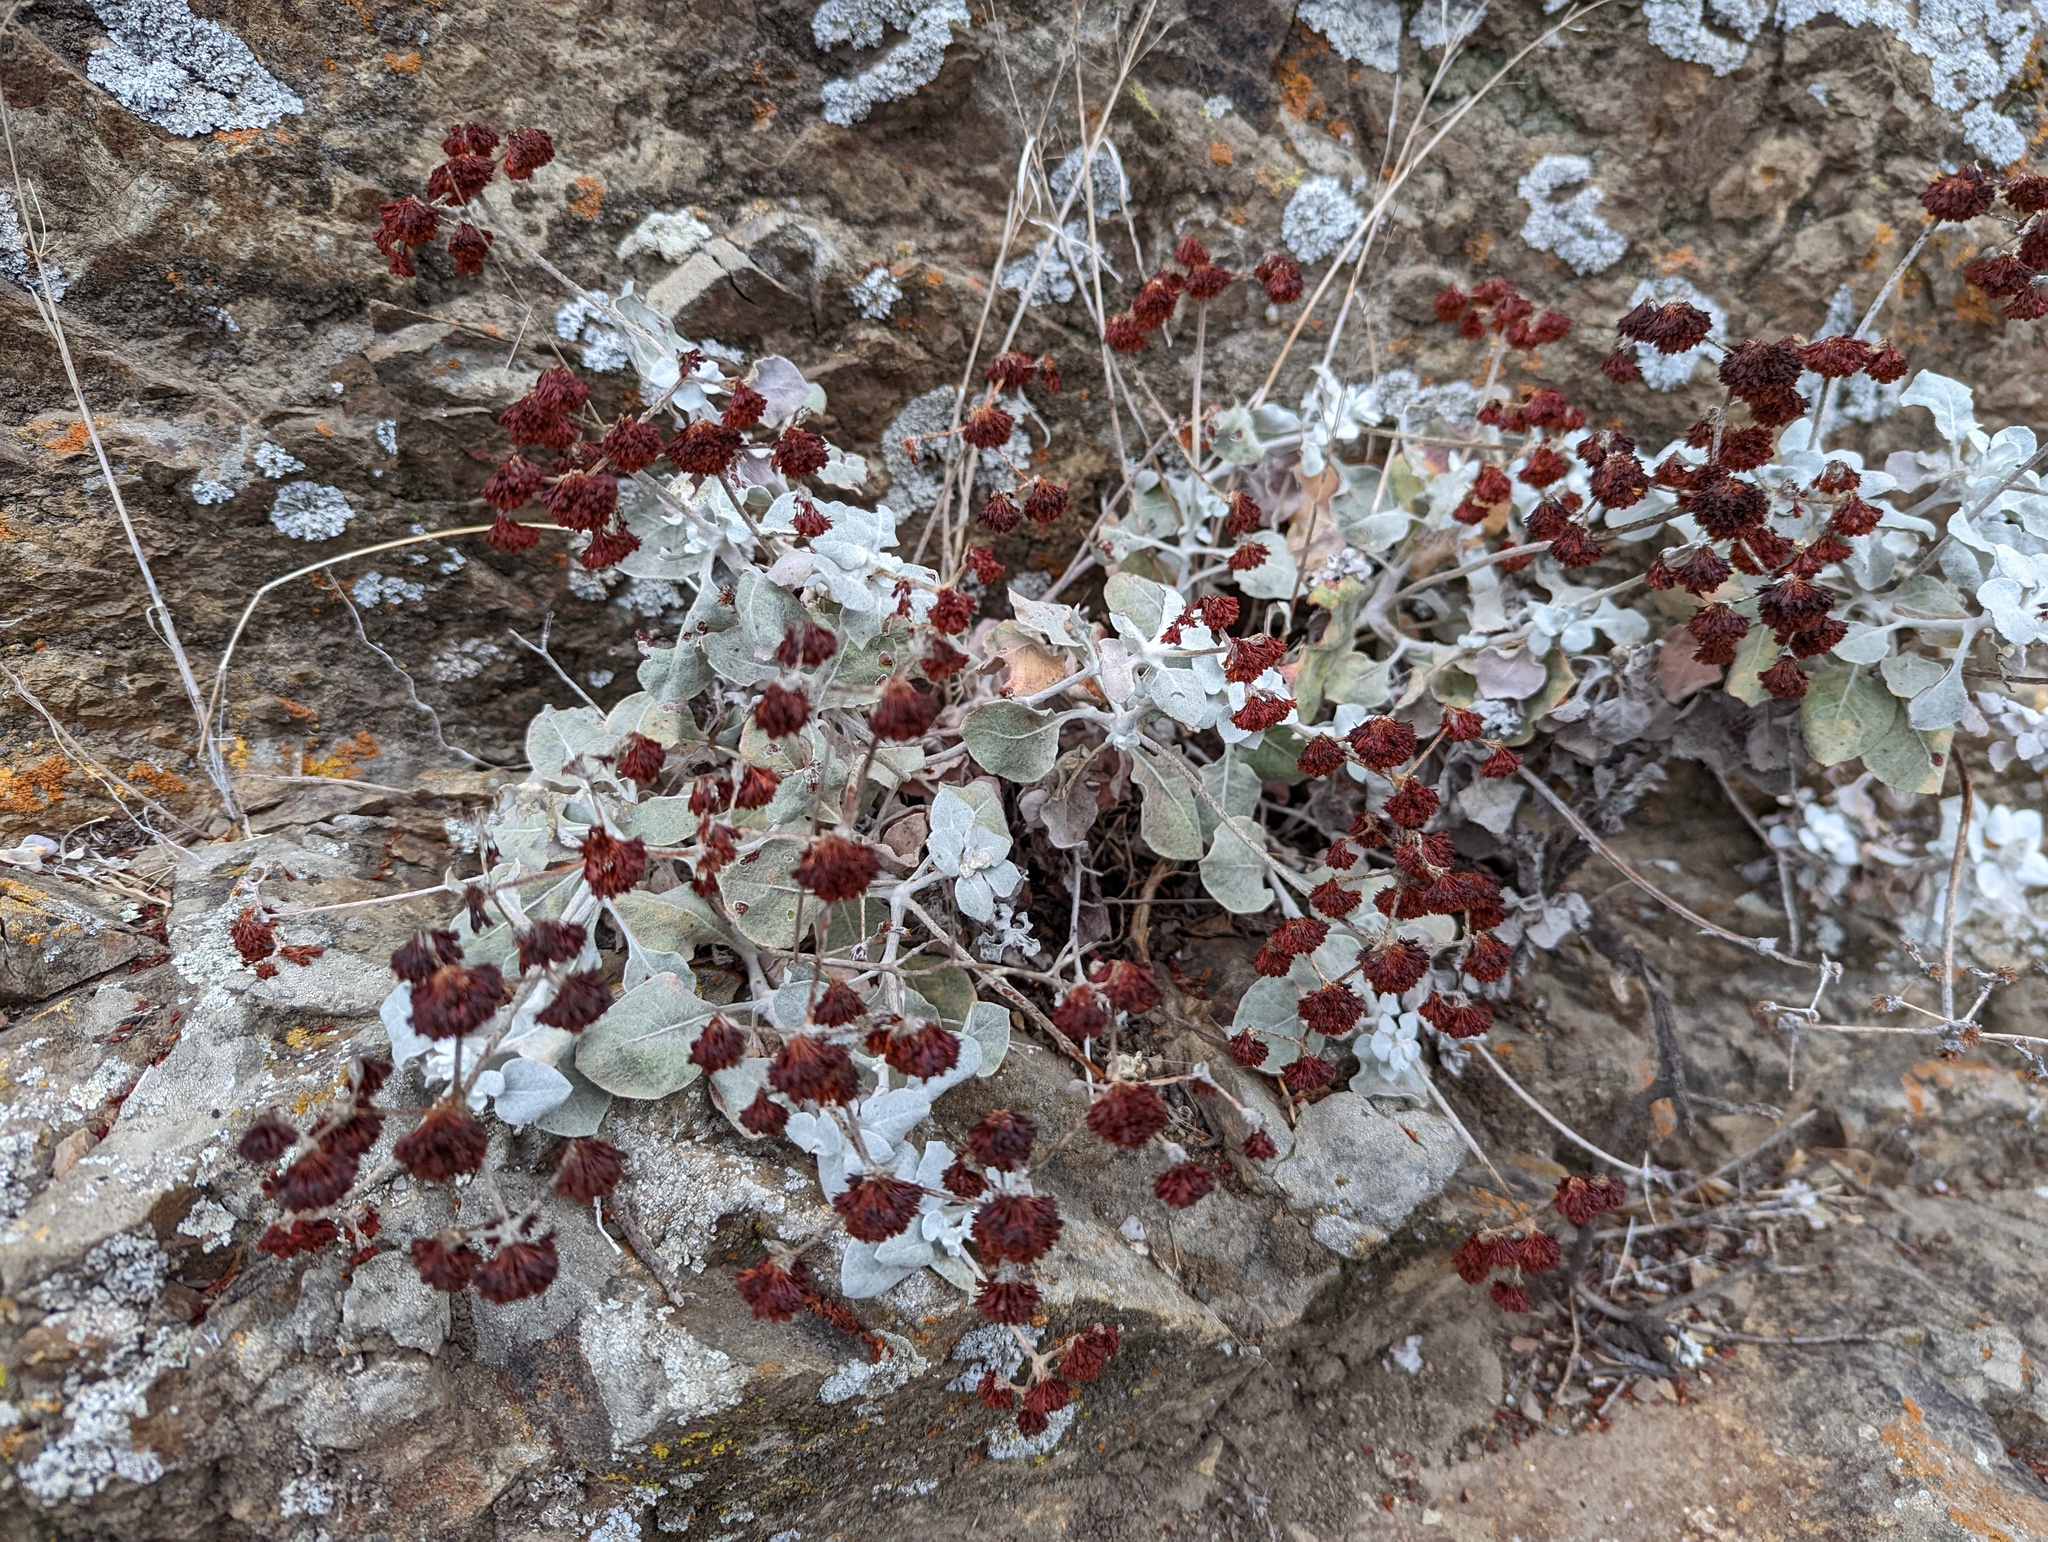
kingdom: Plantae
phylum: Tracheophyta
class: Magnoliopsida
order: Caryophyllales
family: Polygonaceae
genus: Eriogonum
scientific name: Eriogonum crocatum
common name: Saffron wild buckwheat
